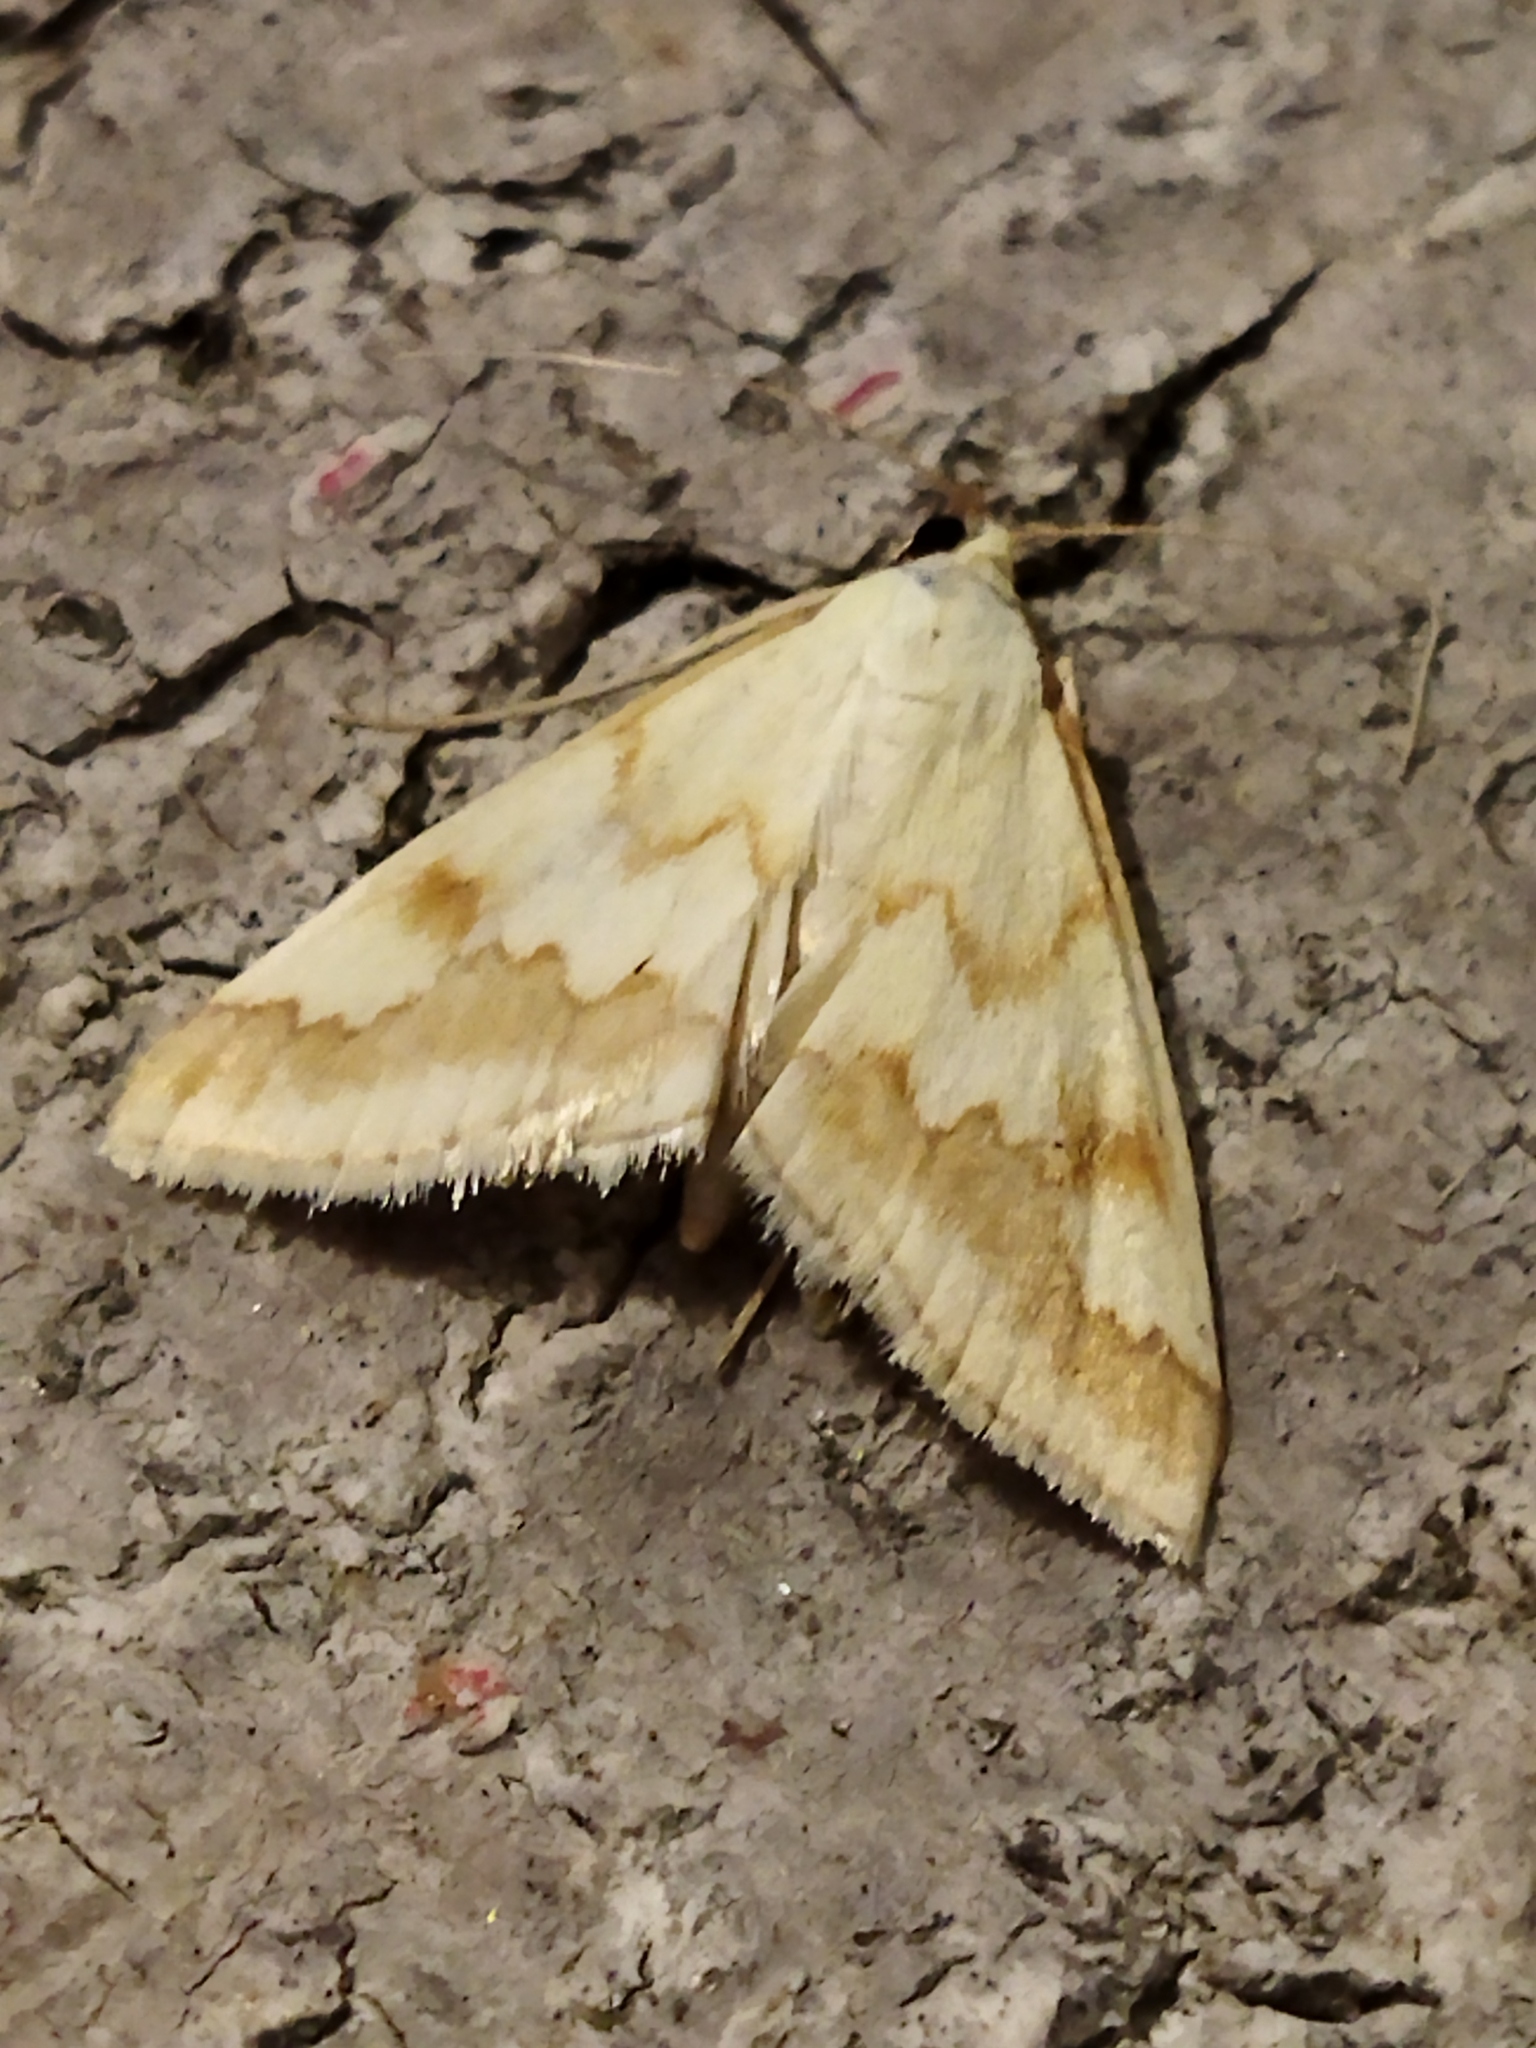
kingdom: Animalia
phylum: Arthropoda
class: Insecta
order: Lepidoptera
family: Crambidae
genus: Ephelis
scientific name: Ephelis cruentalis
